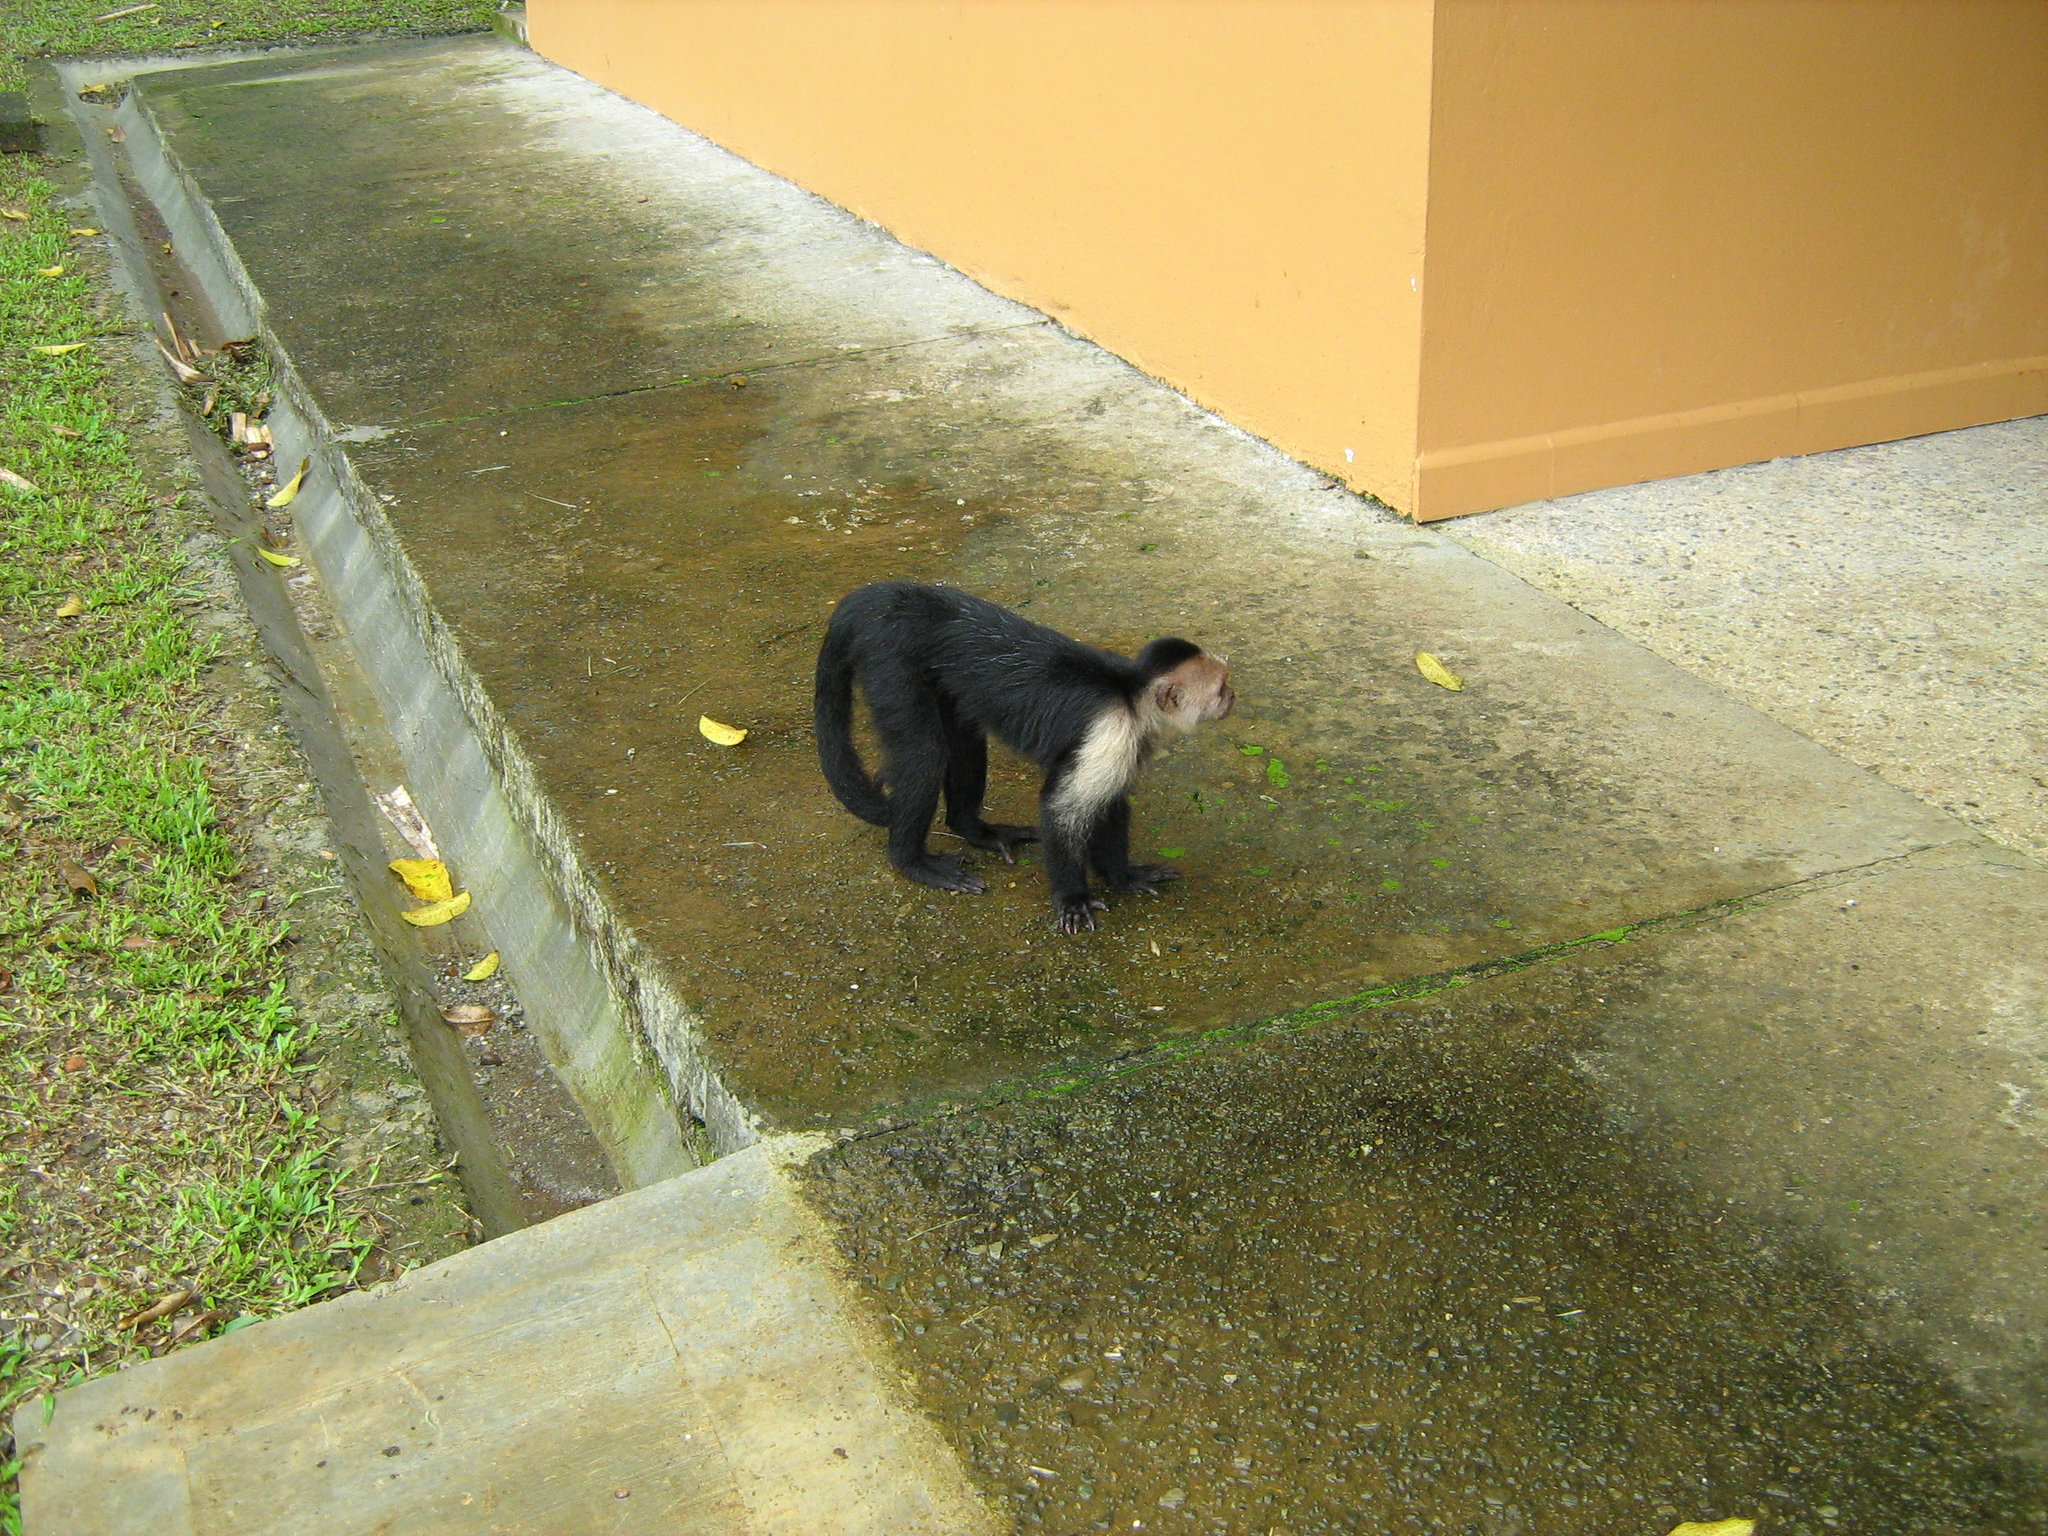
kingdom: Animalia
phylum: Chordata
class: Mammalia
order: Primates
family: Cebidae
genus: Cebus
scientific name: Cebus capucinus
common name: White-headed capuchin
